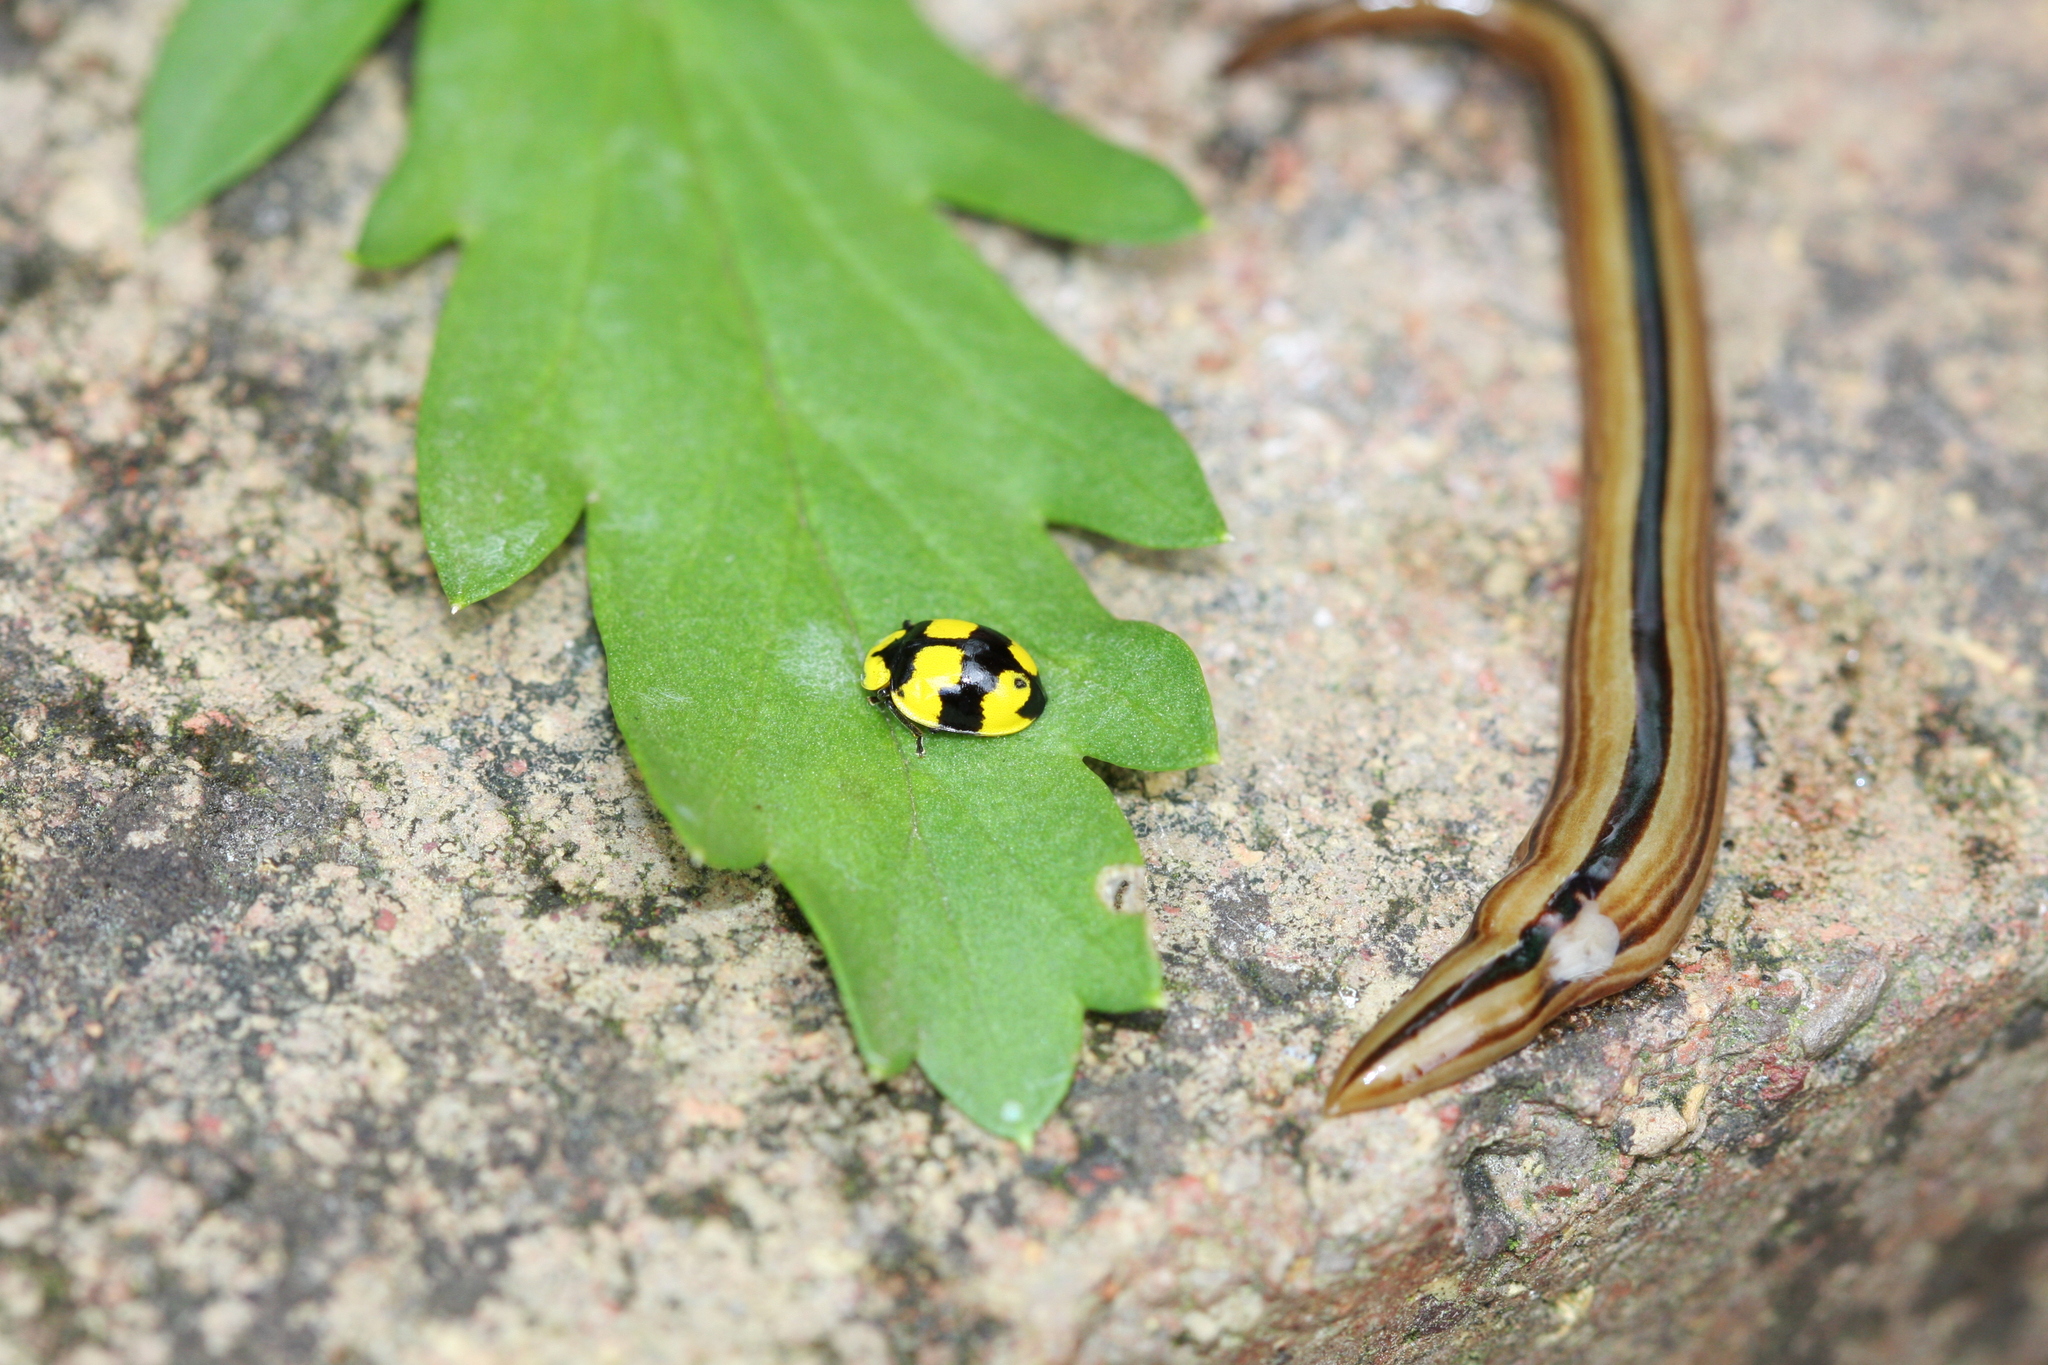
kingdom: Animalia
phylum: Platyhelminthes
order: Tricladida
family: Geoplanidae
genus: Australopacifica
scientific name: Australopacifica regina
